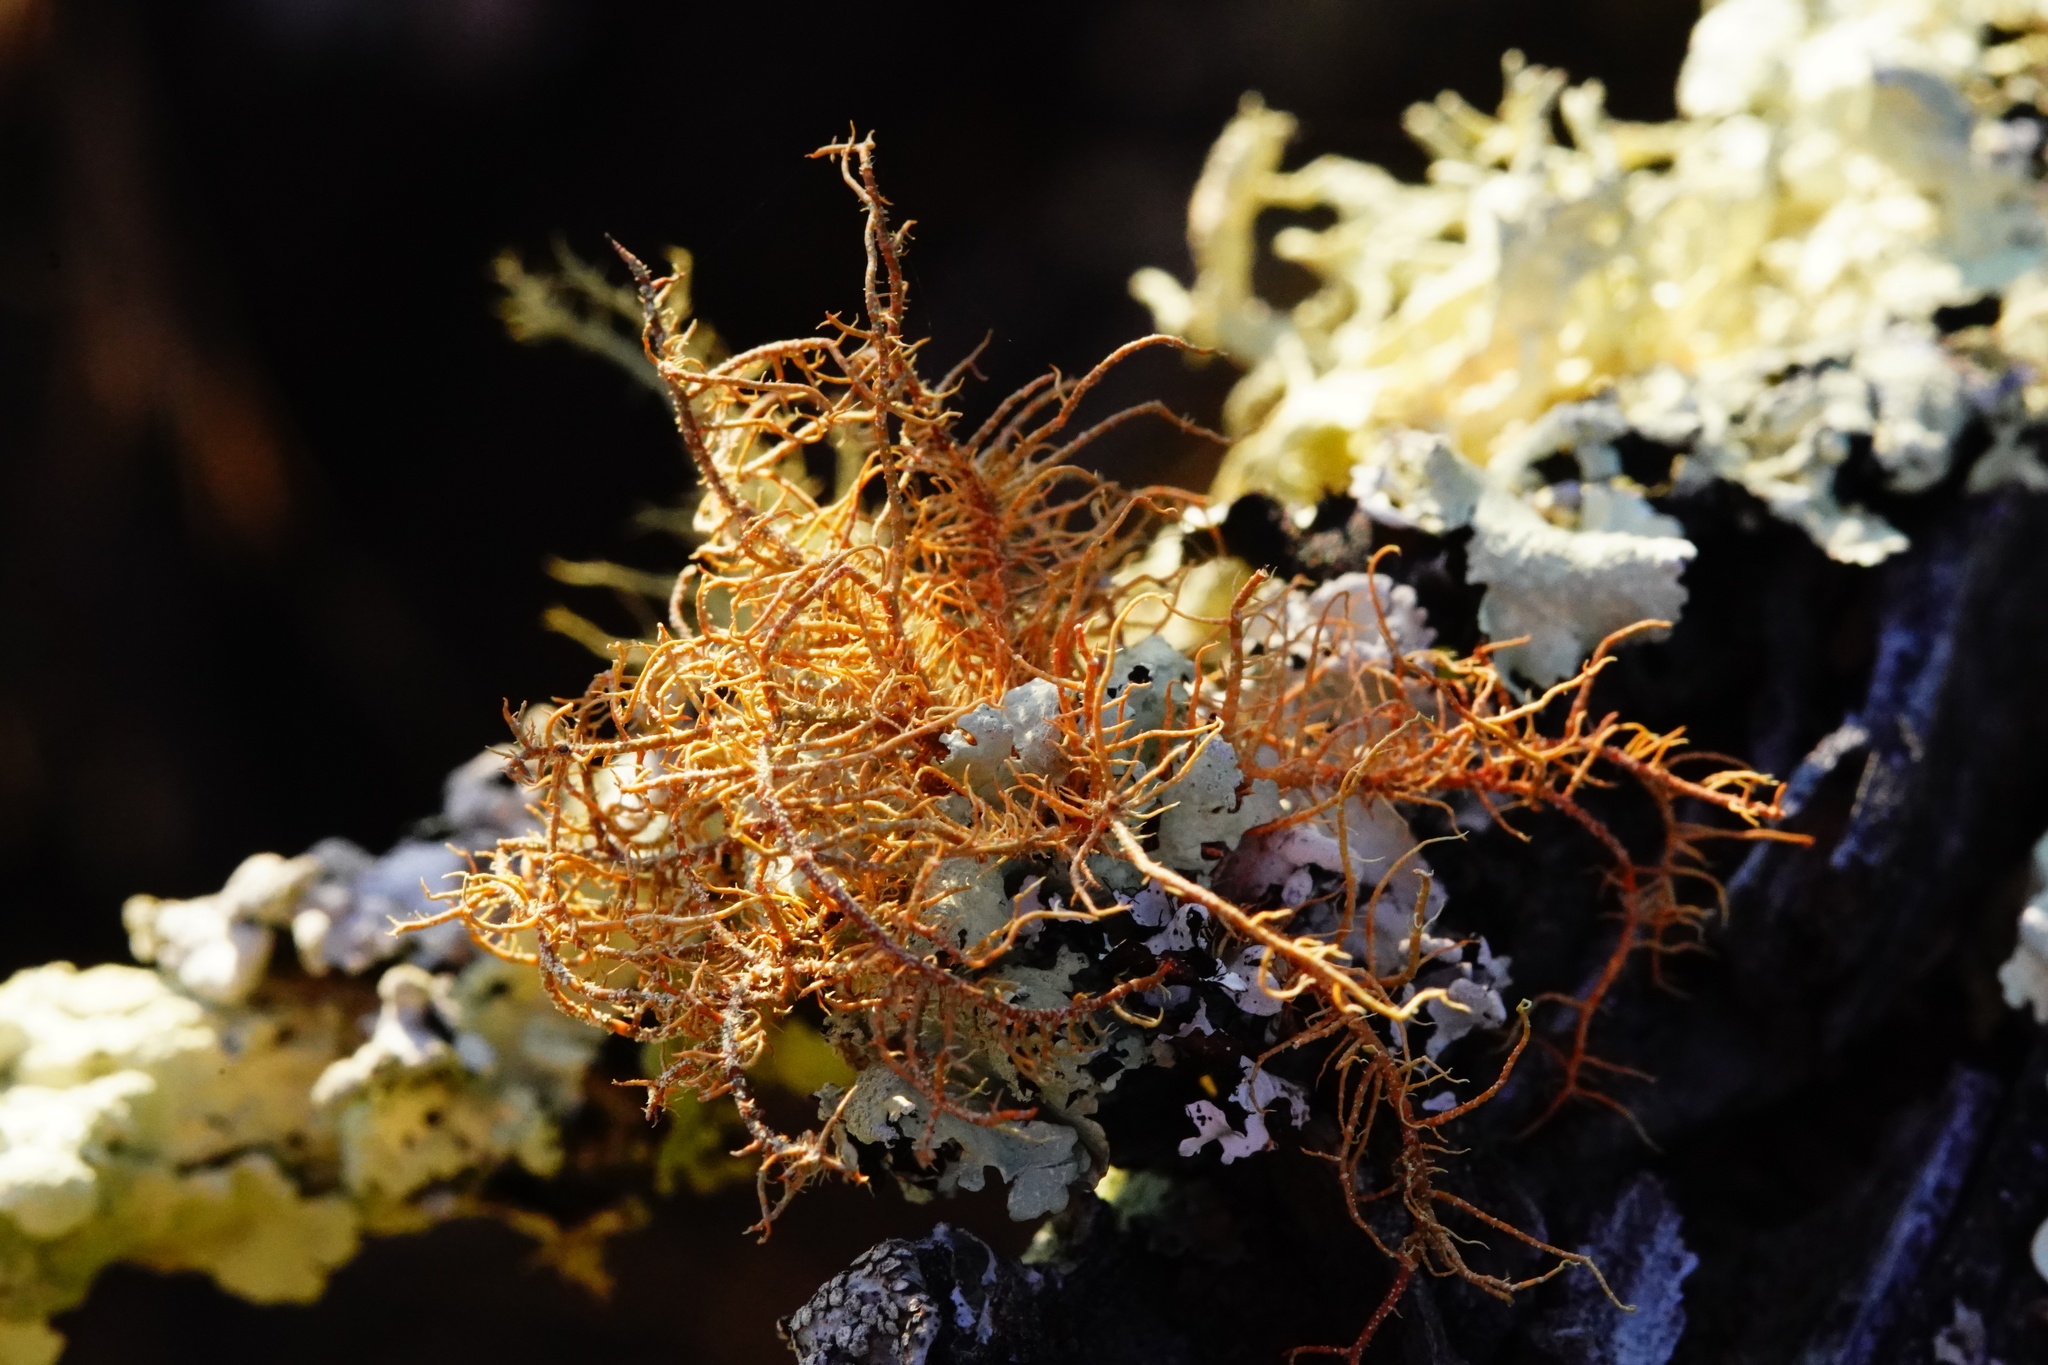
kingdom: Fungi
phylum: Ascomycota
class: Lecanoromycetes
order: Lecanorales
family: Parmeliaceae
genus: Usnea
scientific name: Usnea rubicunda
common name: Red beard lichen
